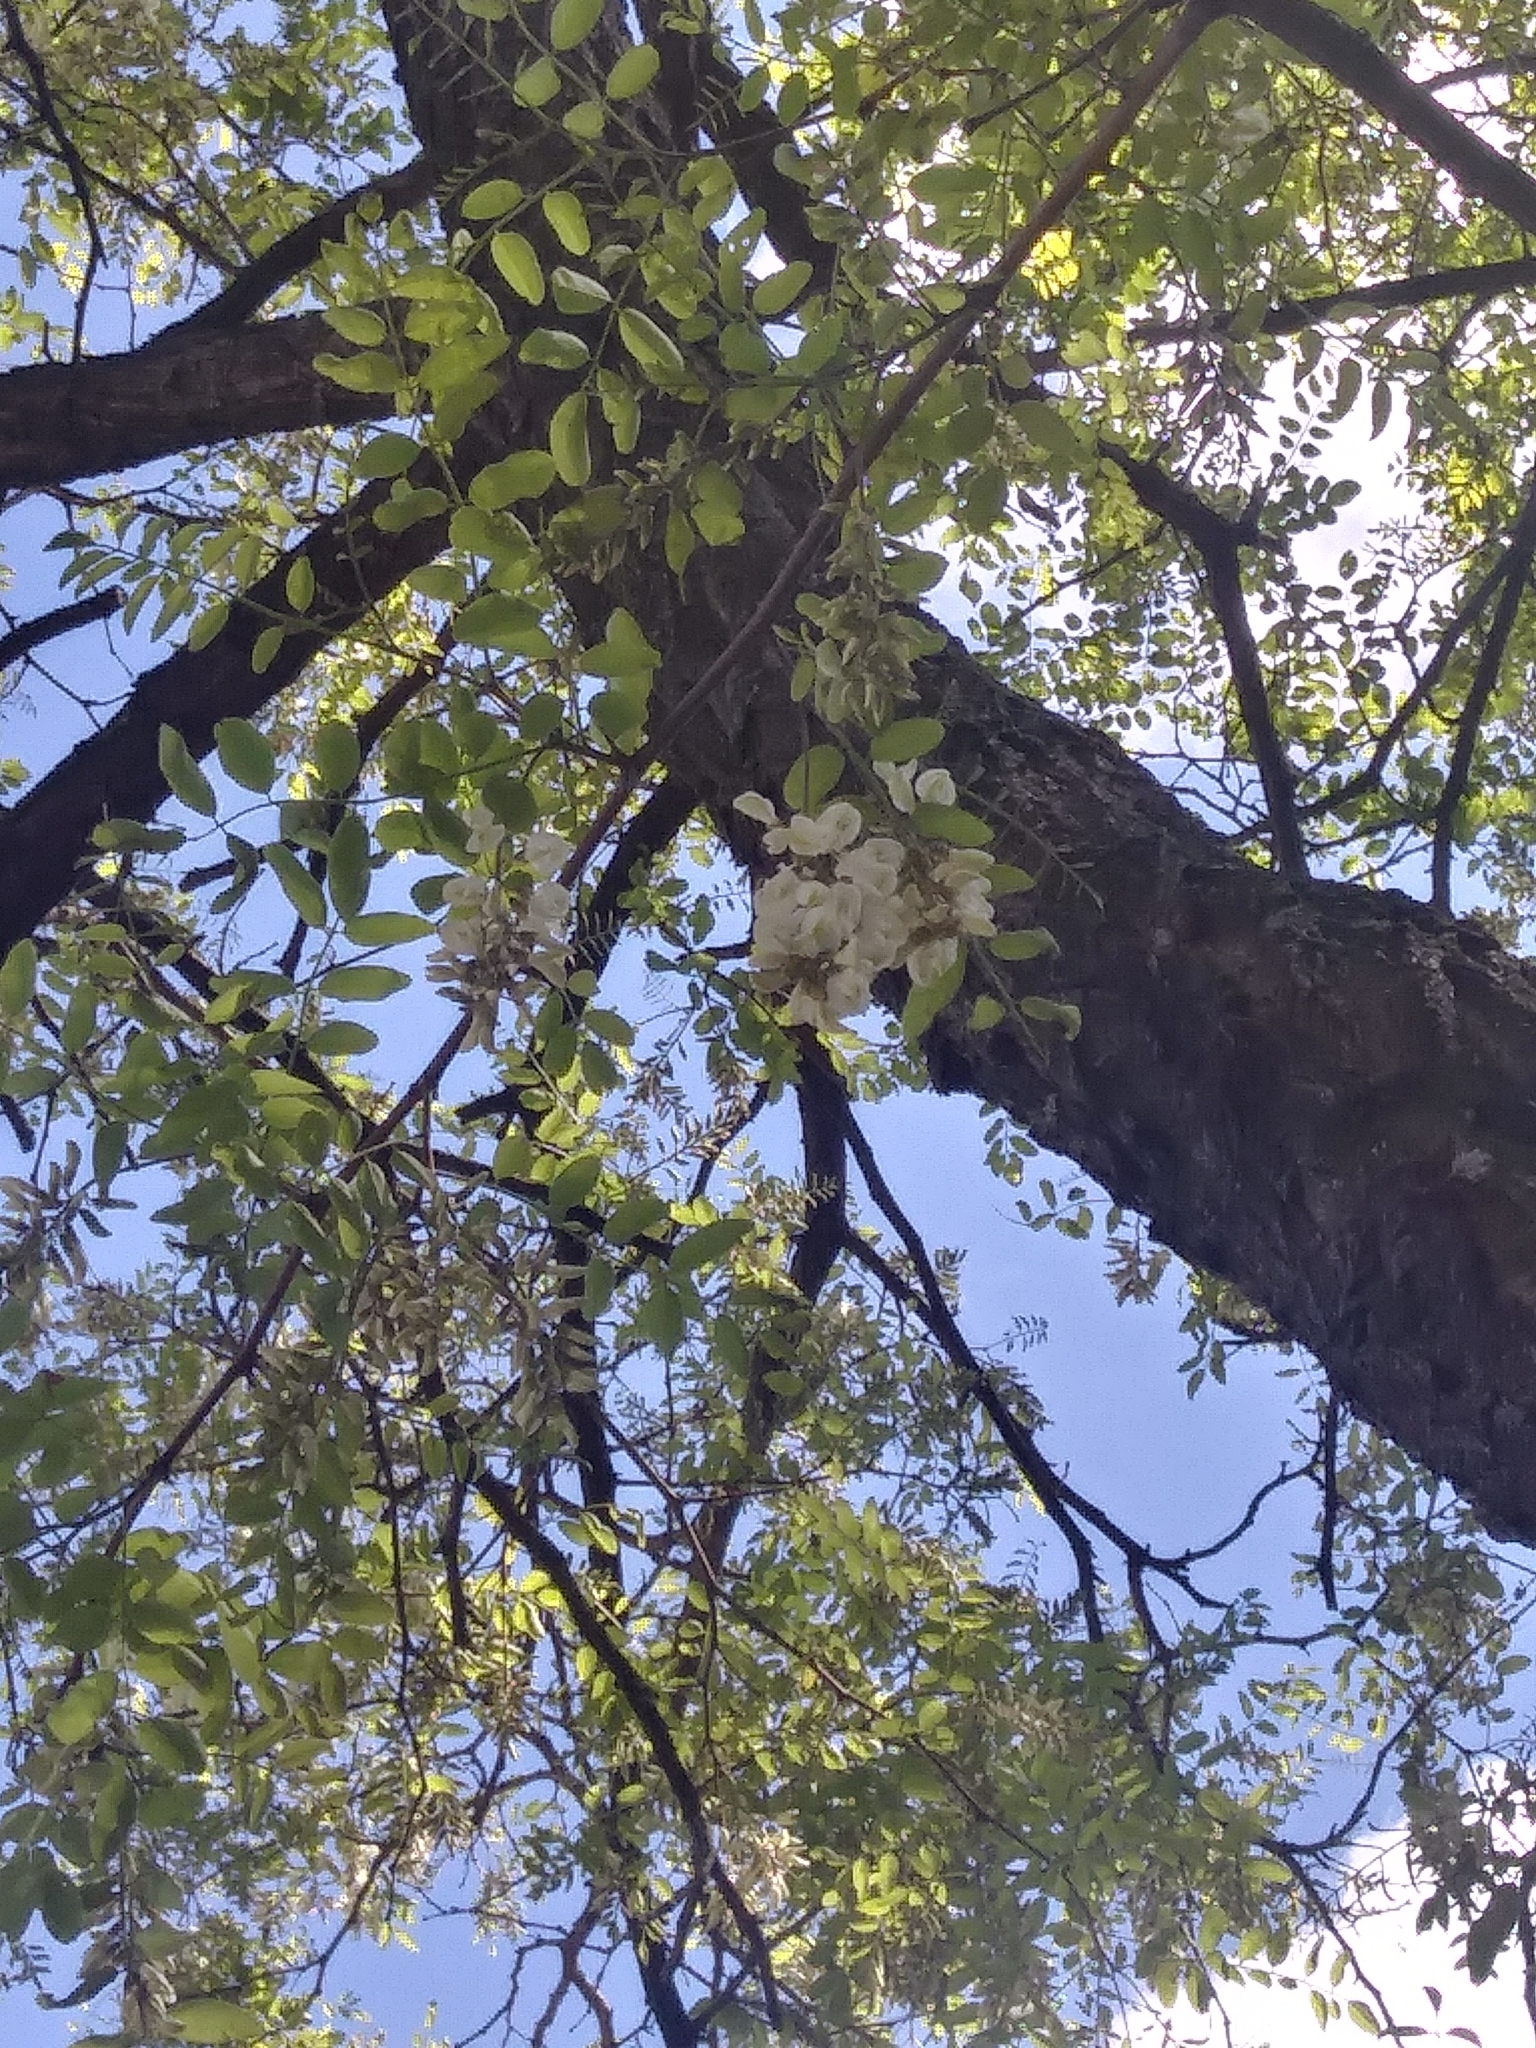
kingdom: Plantae
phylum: Tracheophyta
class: Magnoliopsida
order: Fabales
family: Fabaceae
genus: Robinia
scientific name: Robinia pseudoacacia
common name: Black locust
